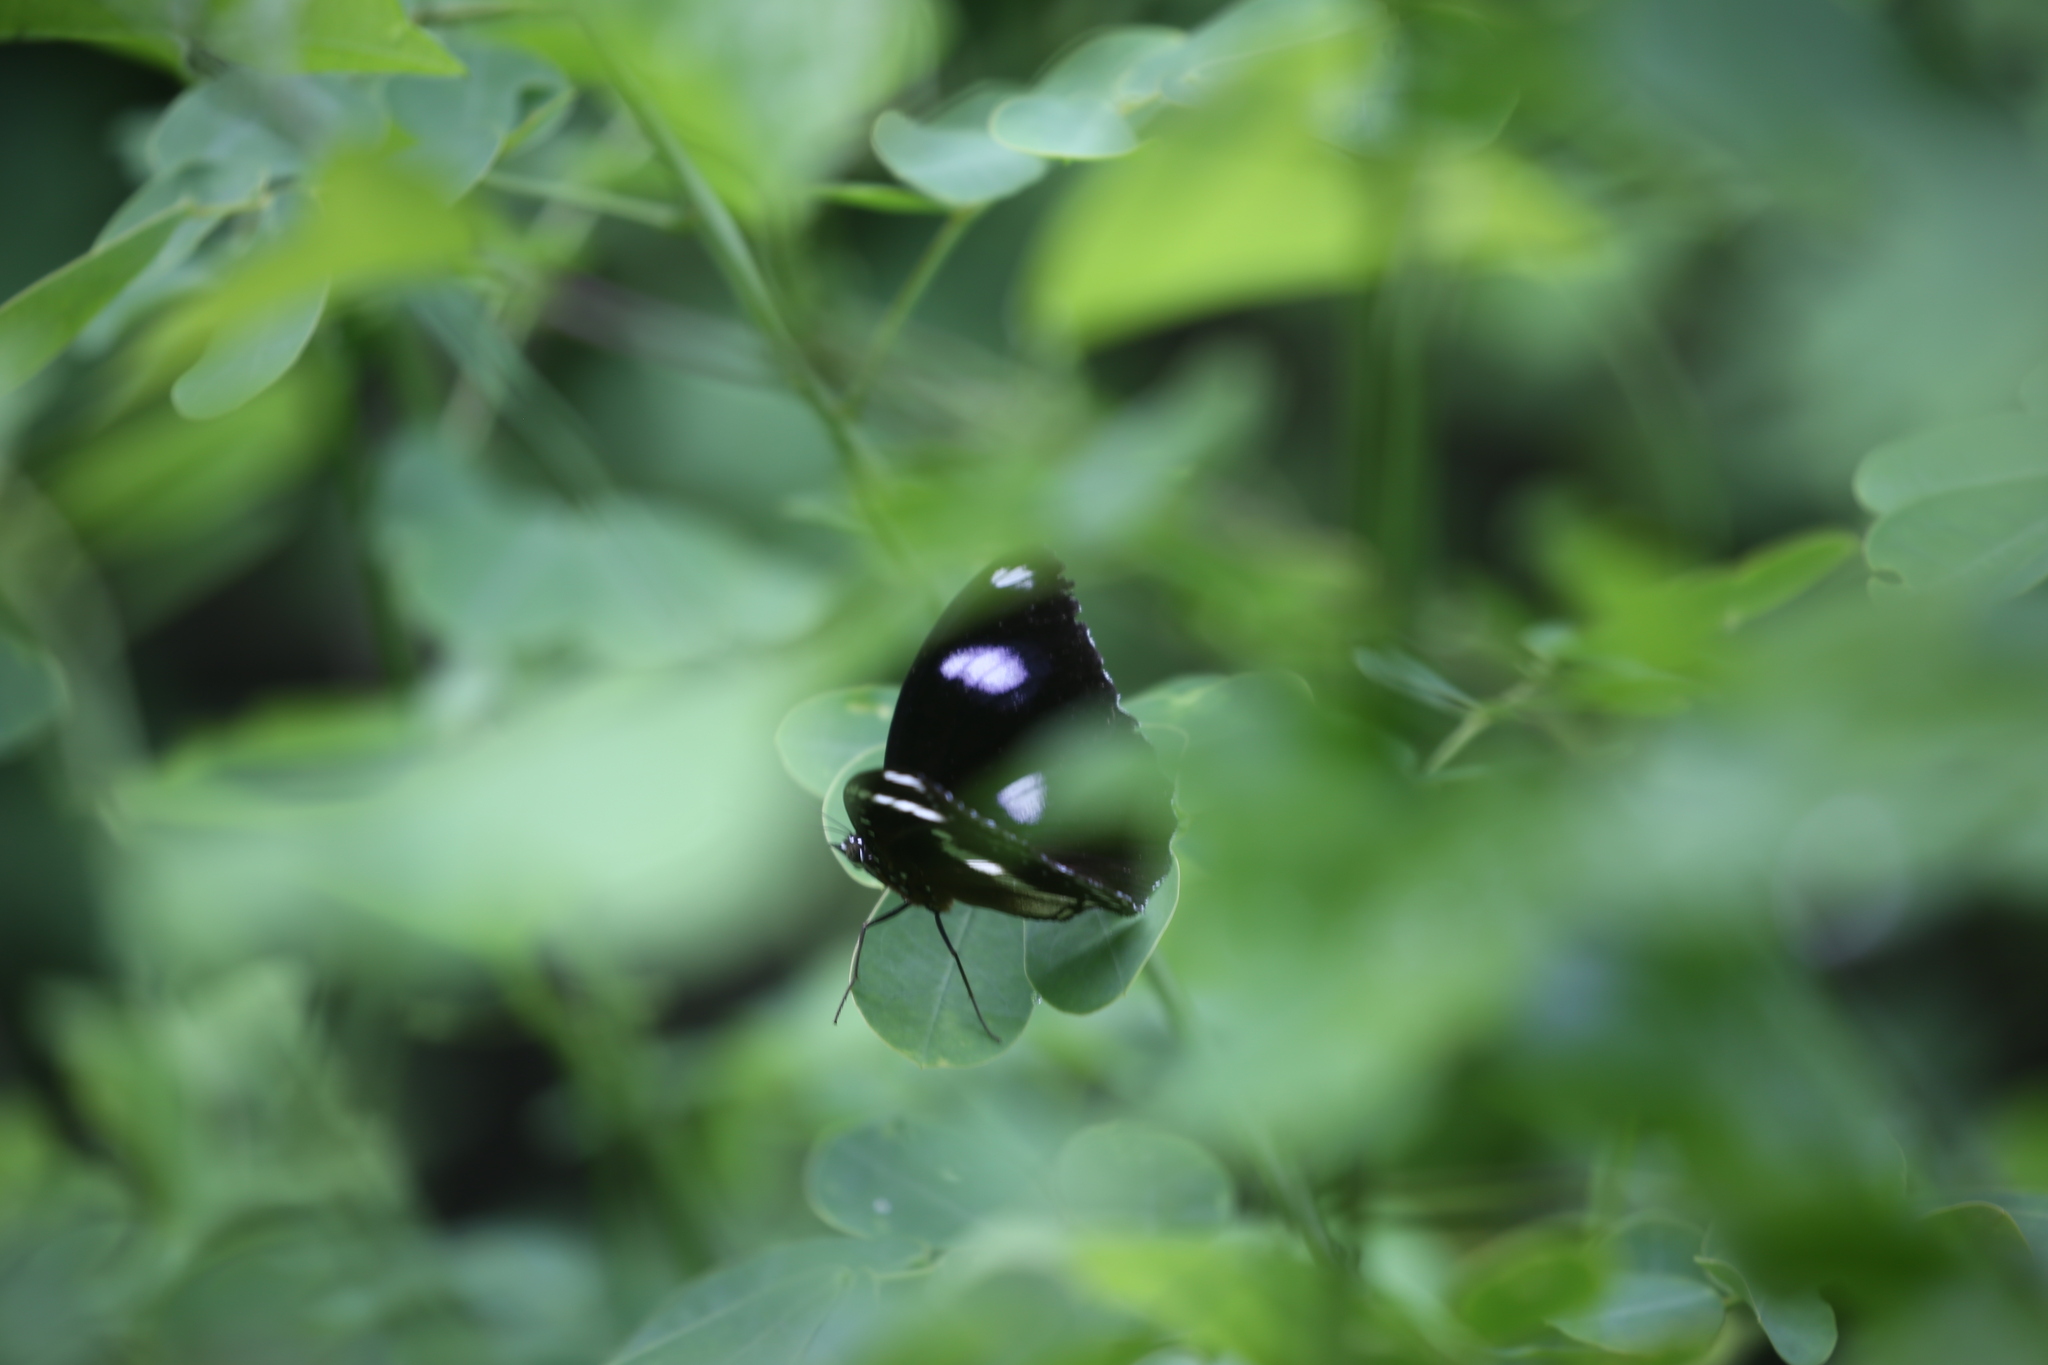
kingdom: Animalia
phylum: Arthropoda
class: Insecta
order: Lepidoptera
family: Nymphalidae
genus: Hypolimnas
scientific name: Hypolimnas bolina
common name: Great eggfly
